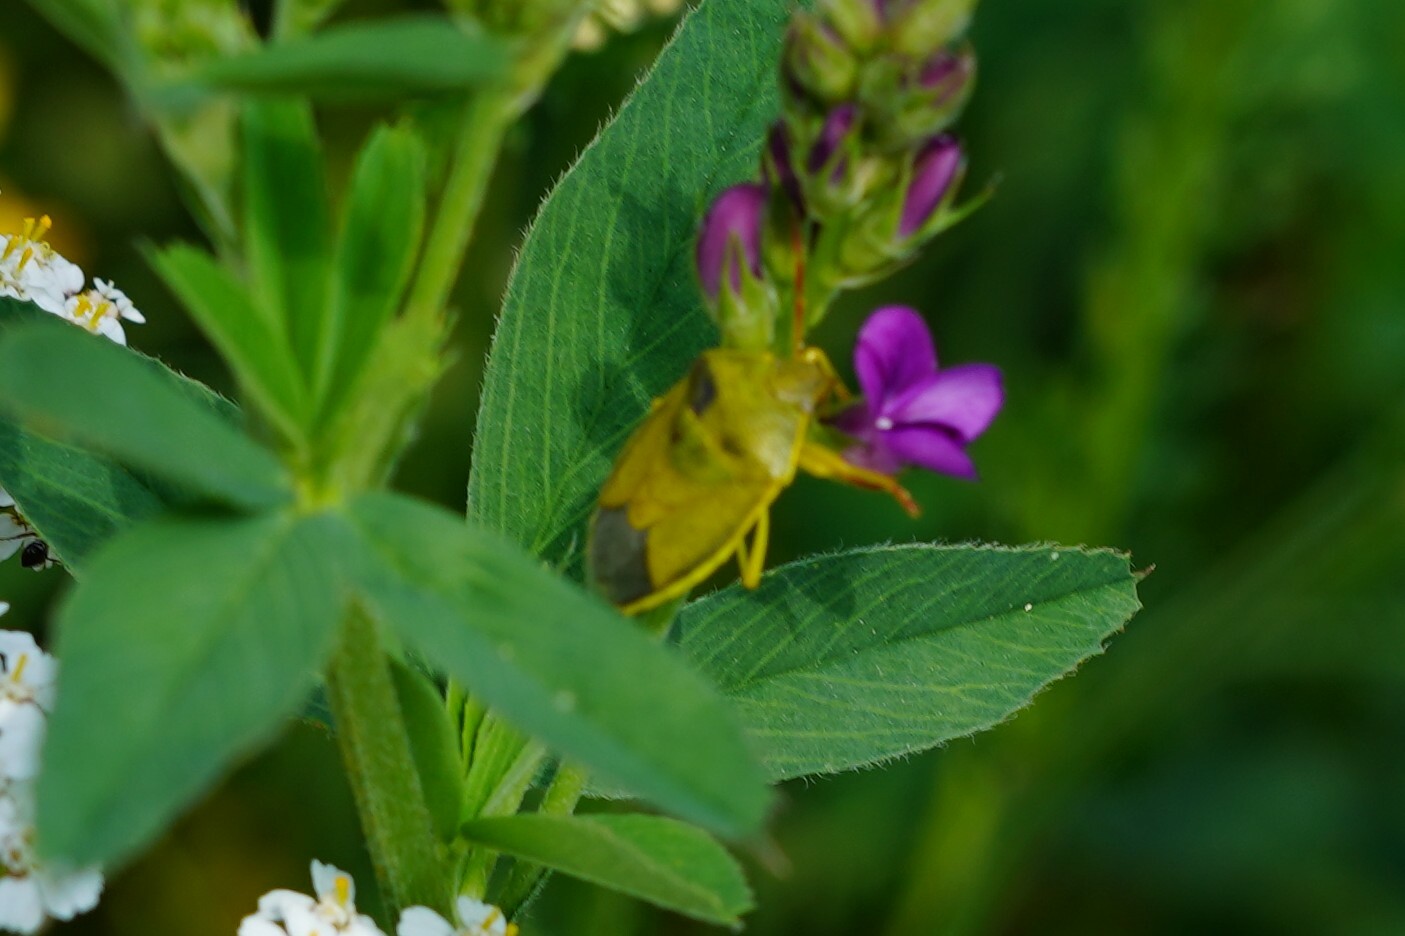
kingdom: Animalia
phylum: Arthropoda
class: Insecta
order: Hemiptera
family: Pentatomidae
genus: Piezodorus
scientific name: Piezodorus lituratus
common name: Stink bug
